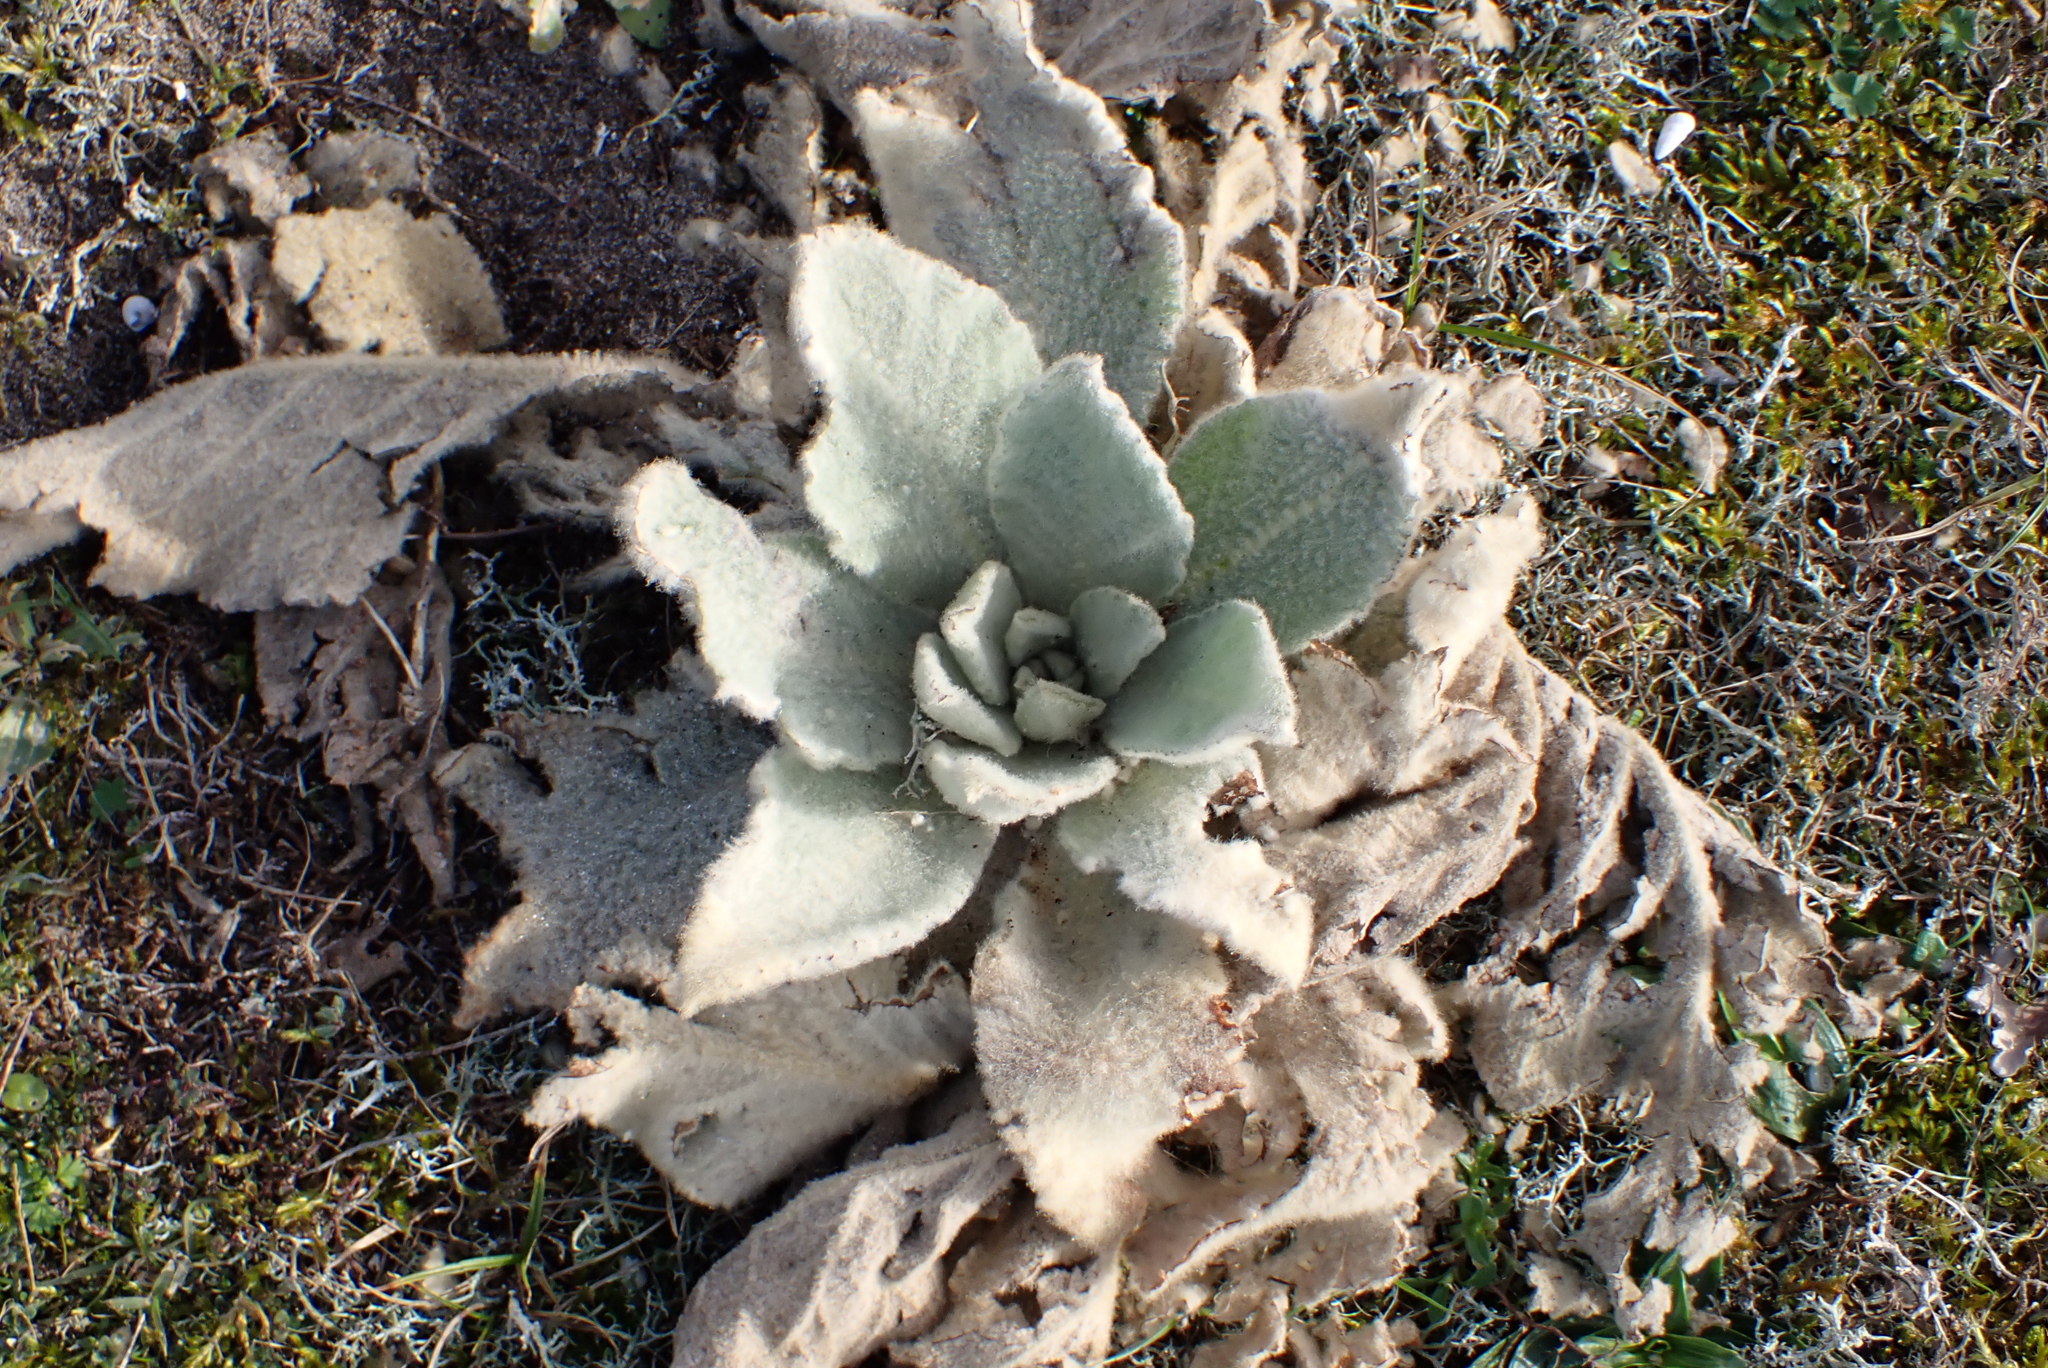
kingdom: Plantae
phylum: Tracheophyta
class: Magnoliopsida
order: Lamiales
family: Scrophulariaceae
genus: Verbascum
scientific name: Verbascum thapsus
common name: Common mullein
